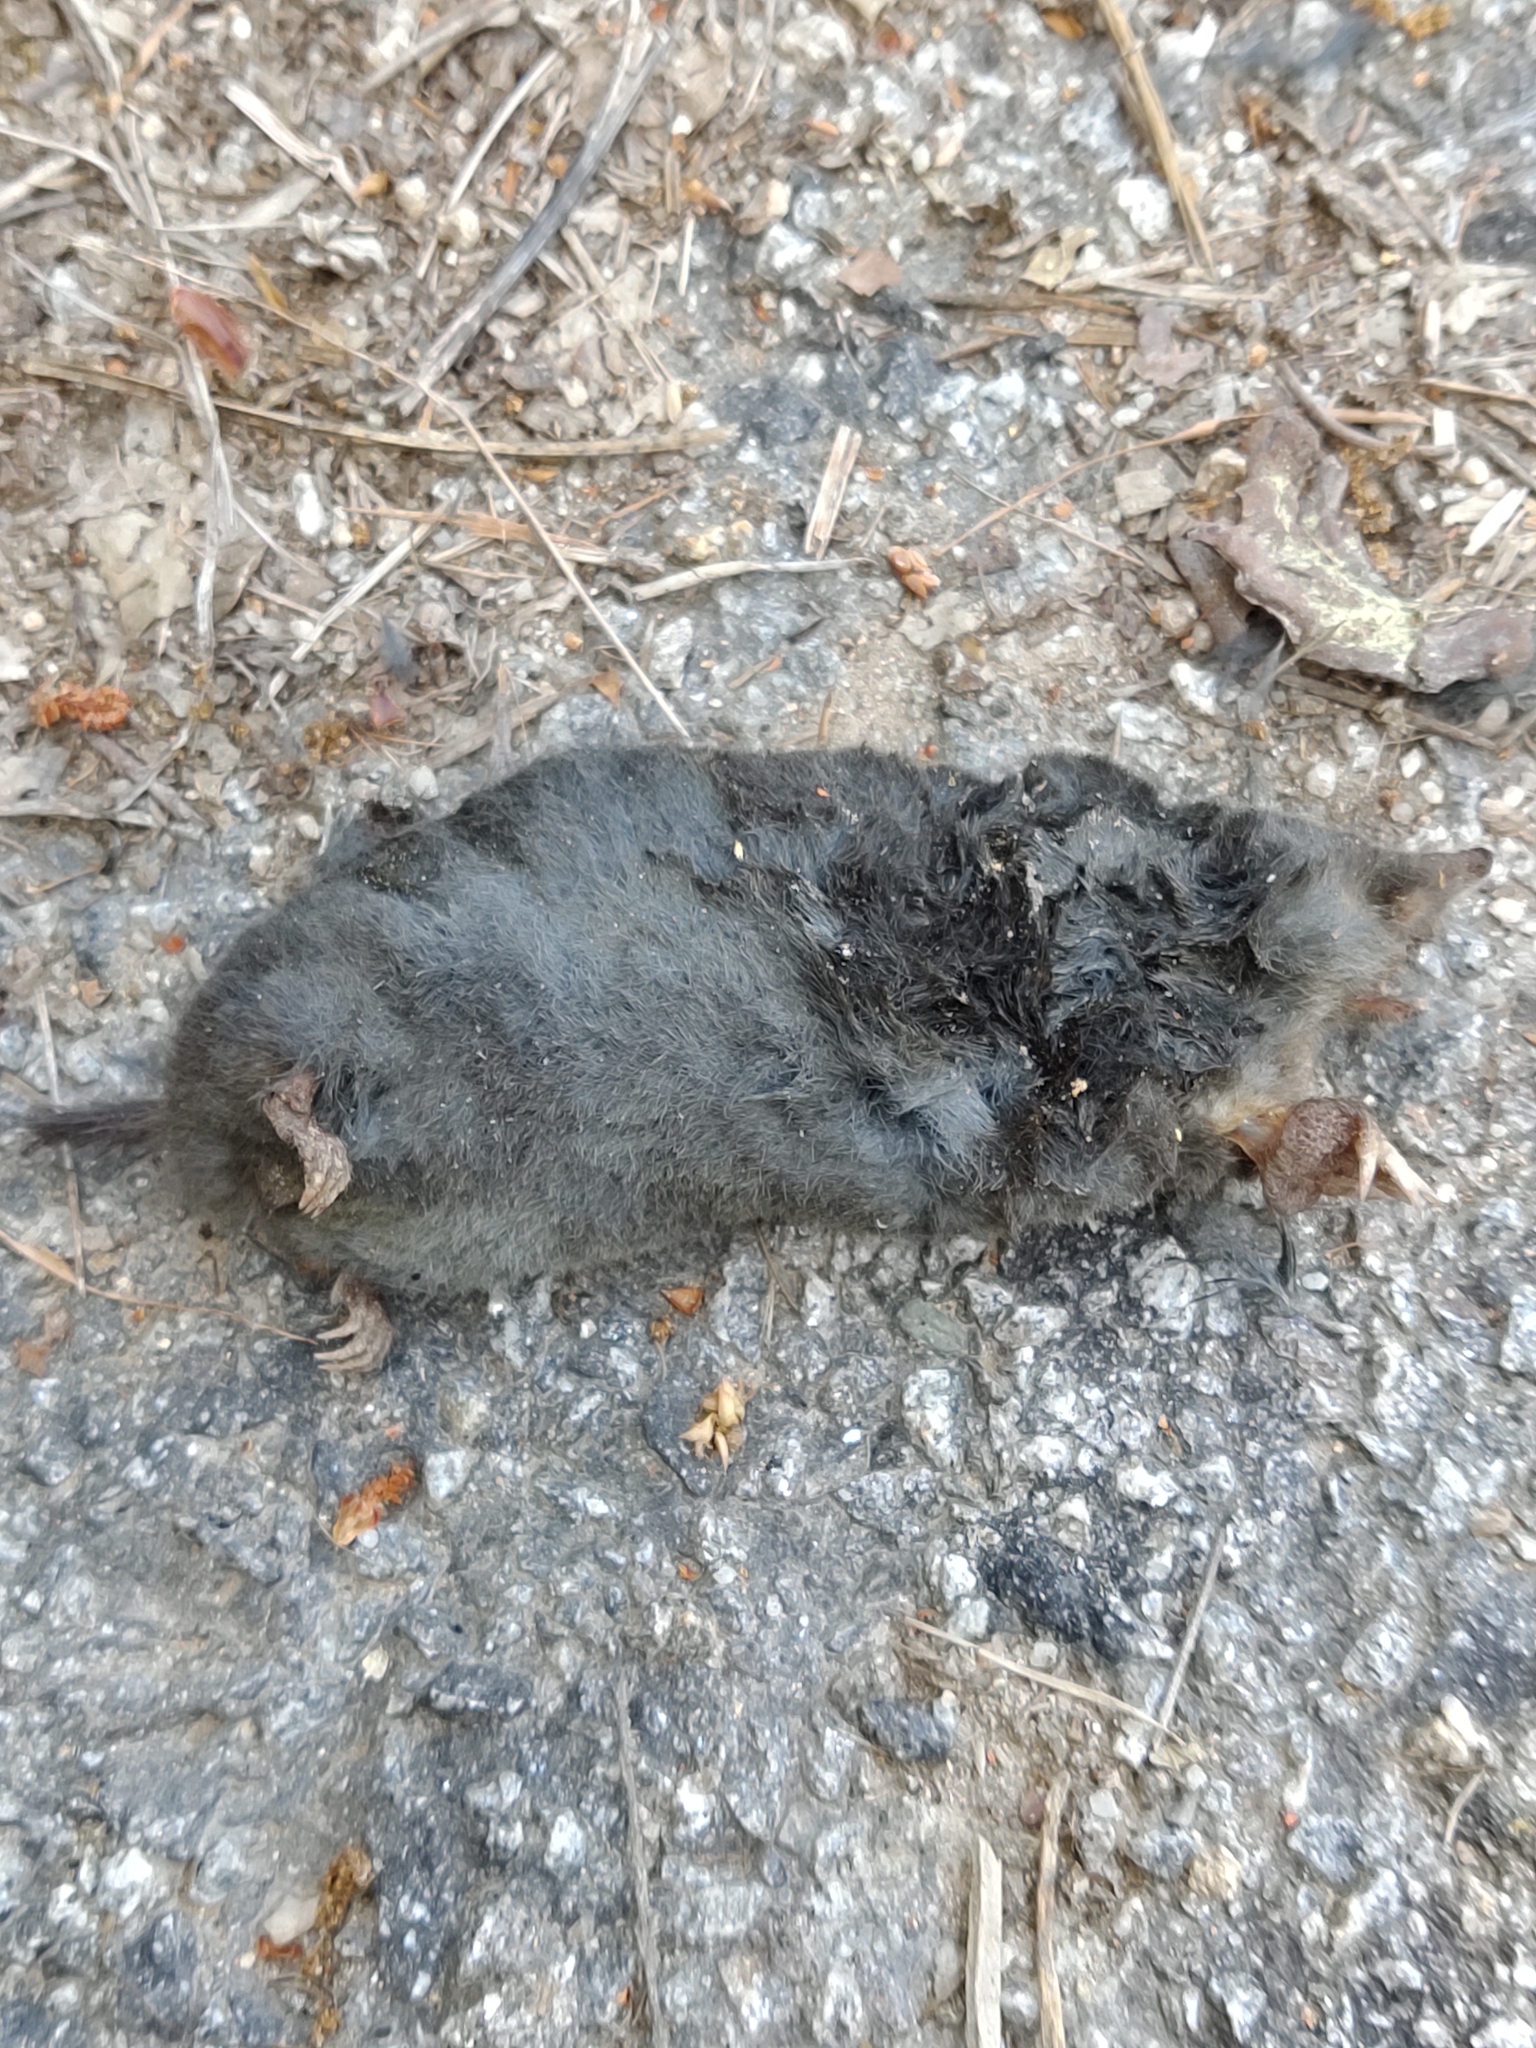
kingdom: Animalia
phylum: Chordata
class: Mammalia
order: Soricomorpha
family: Talpidae
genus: Talpa
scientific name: Talpa occidentalis
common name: Iberian mole
